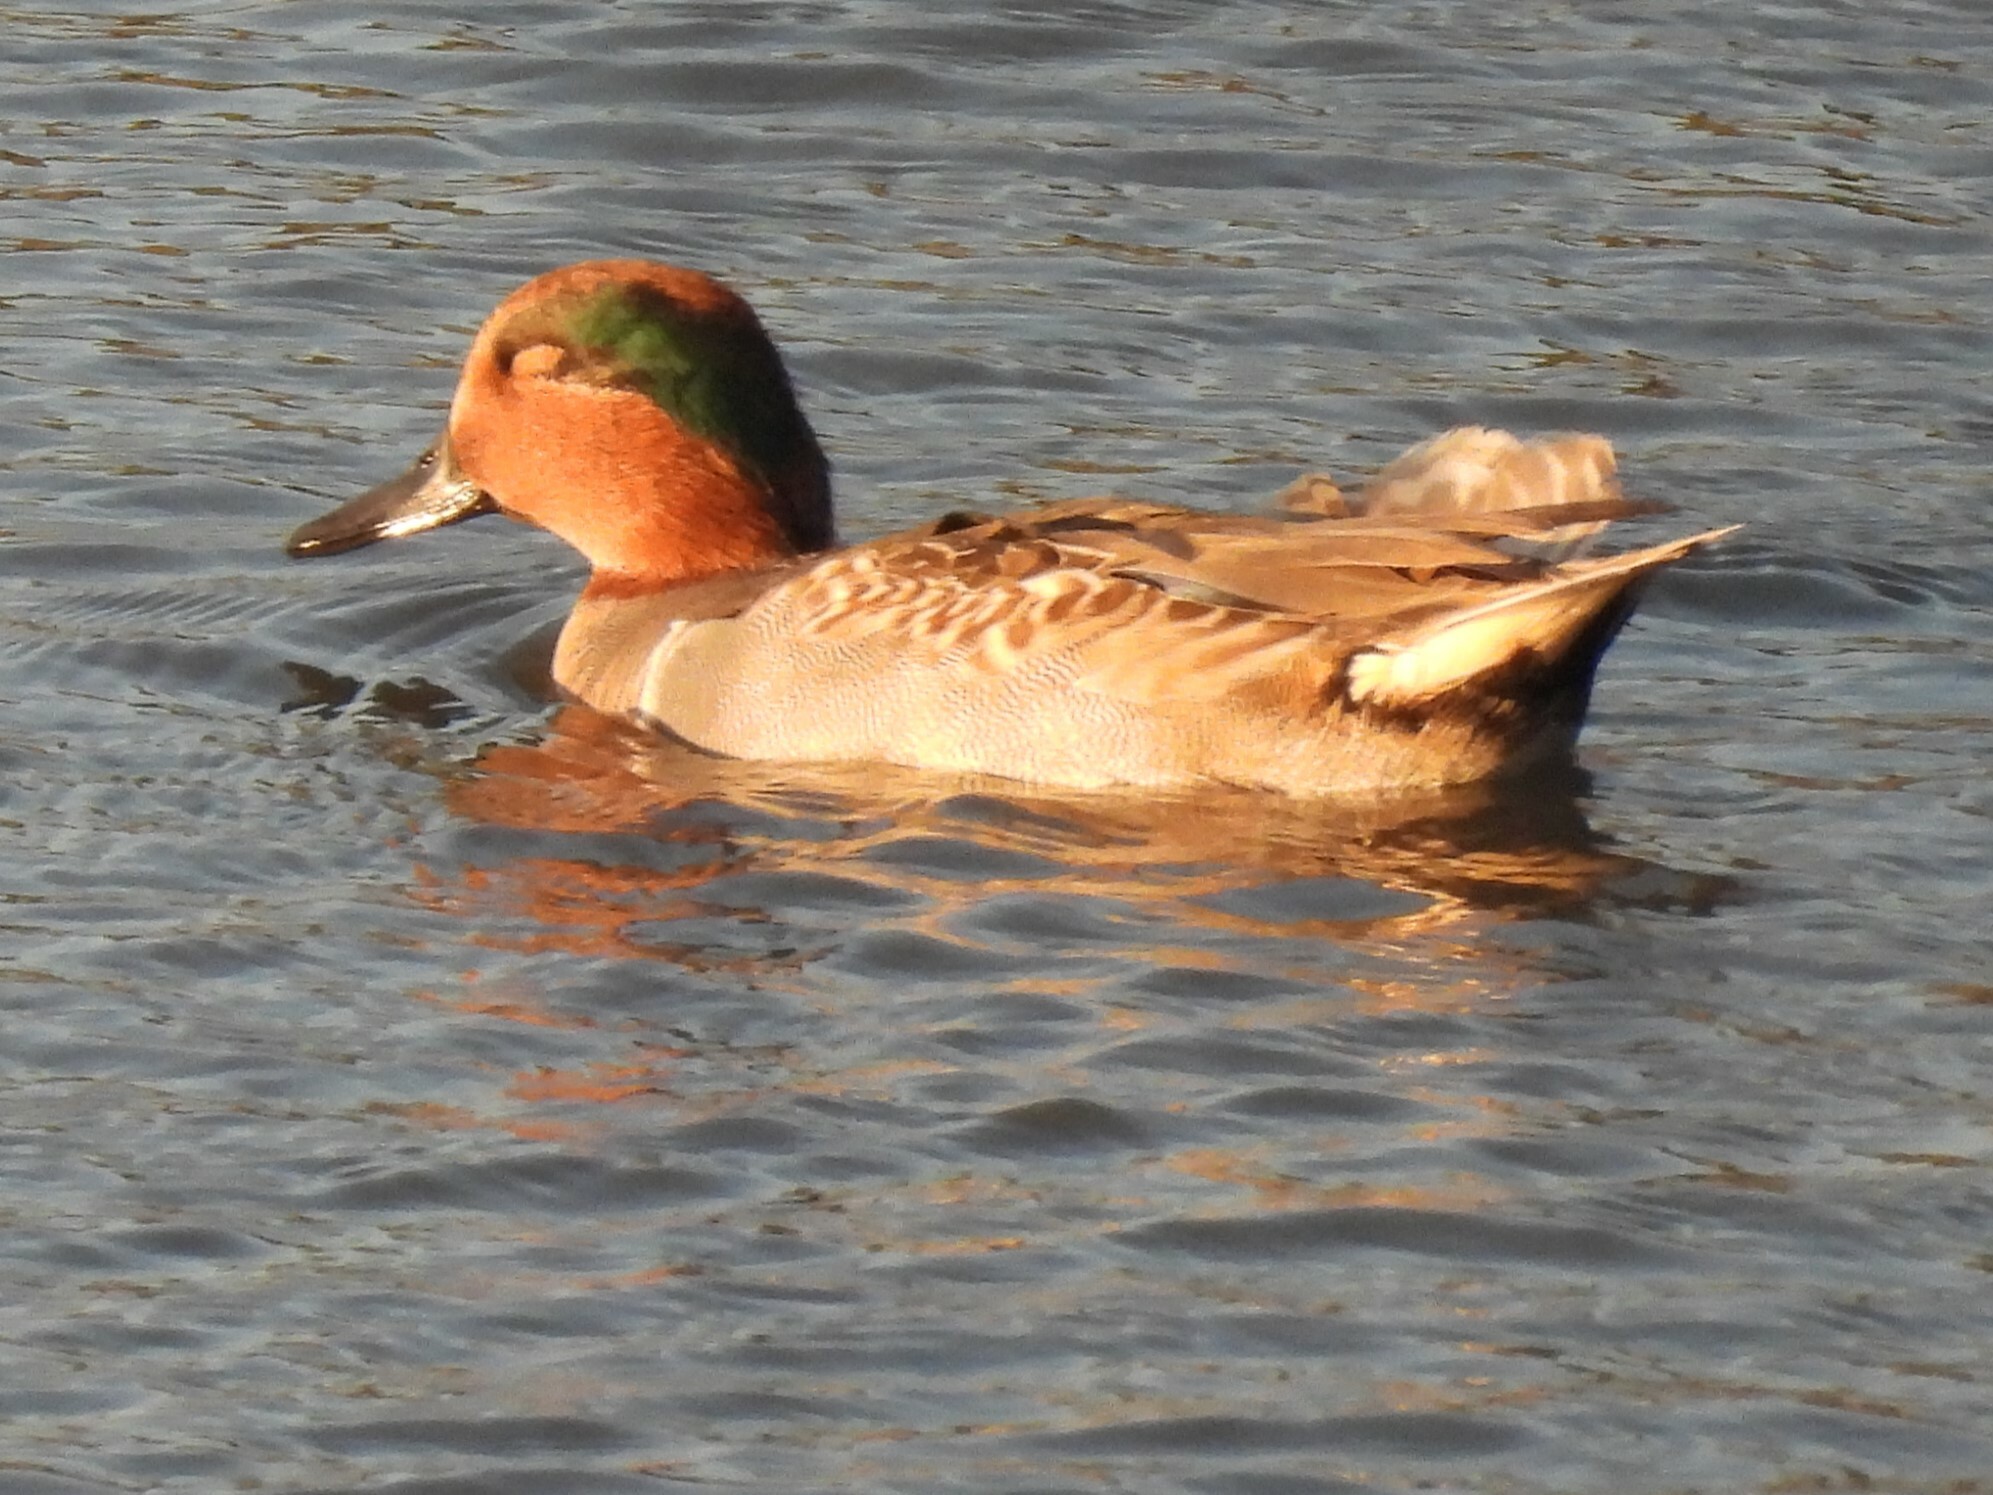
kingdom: Animalia
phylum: Chordata
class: Aves
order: Anseriformes
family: Anatidae
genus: Anas
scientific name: Anas crecca
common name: Eurasian teal
